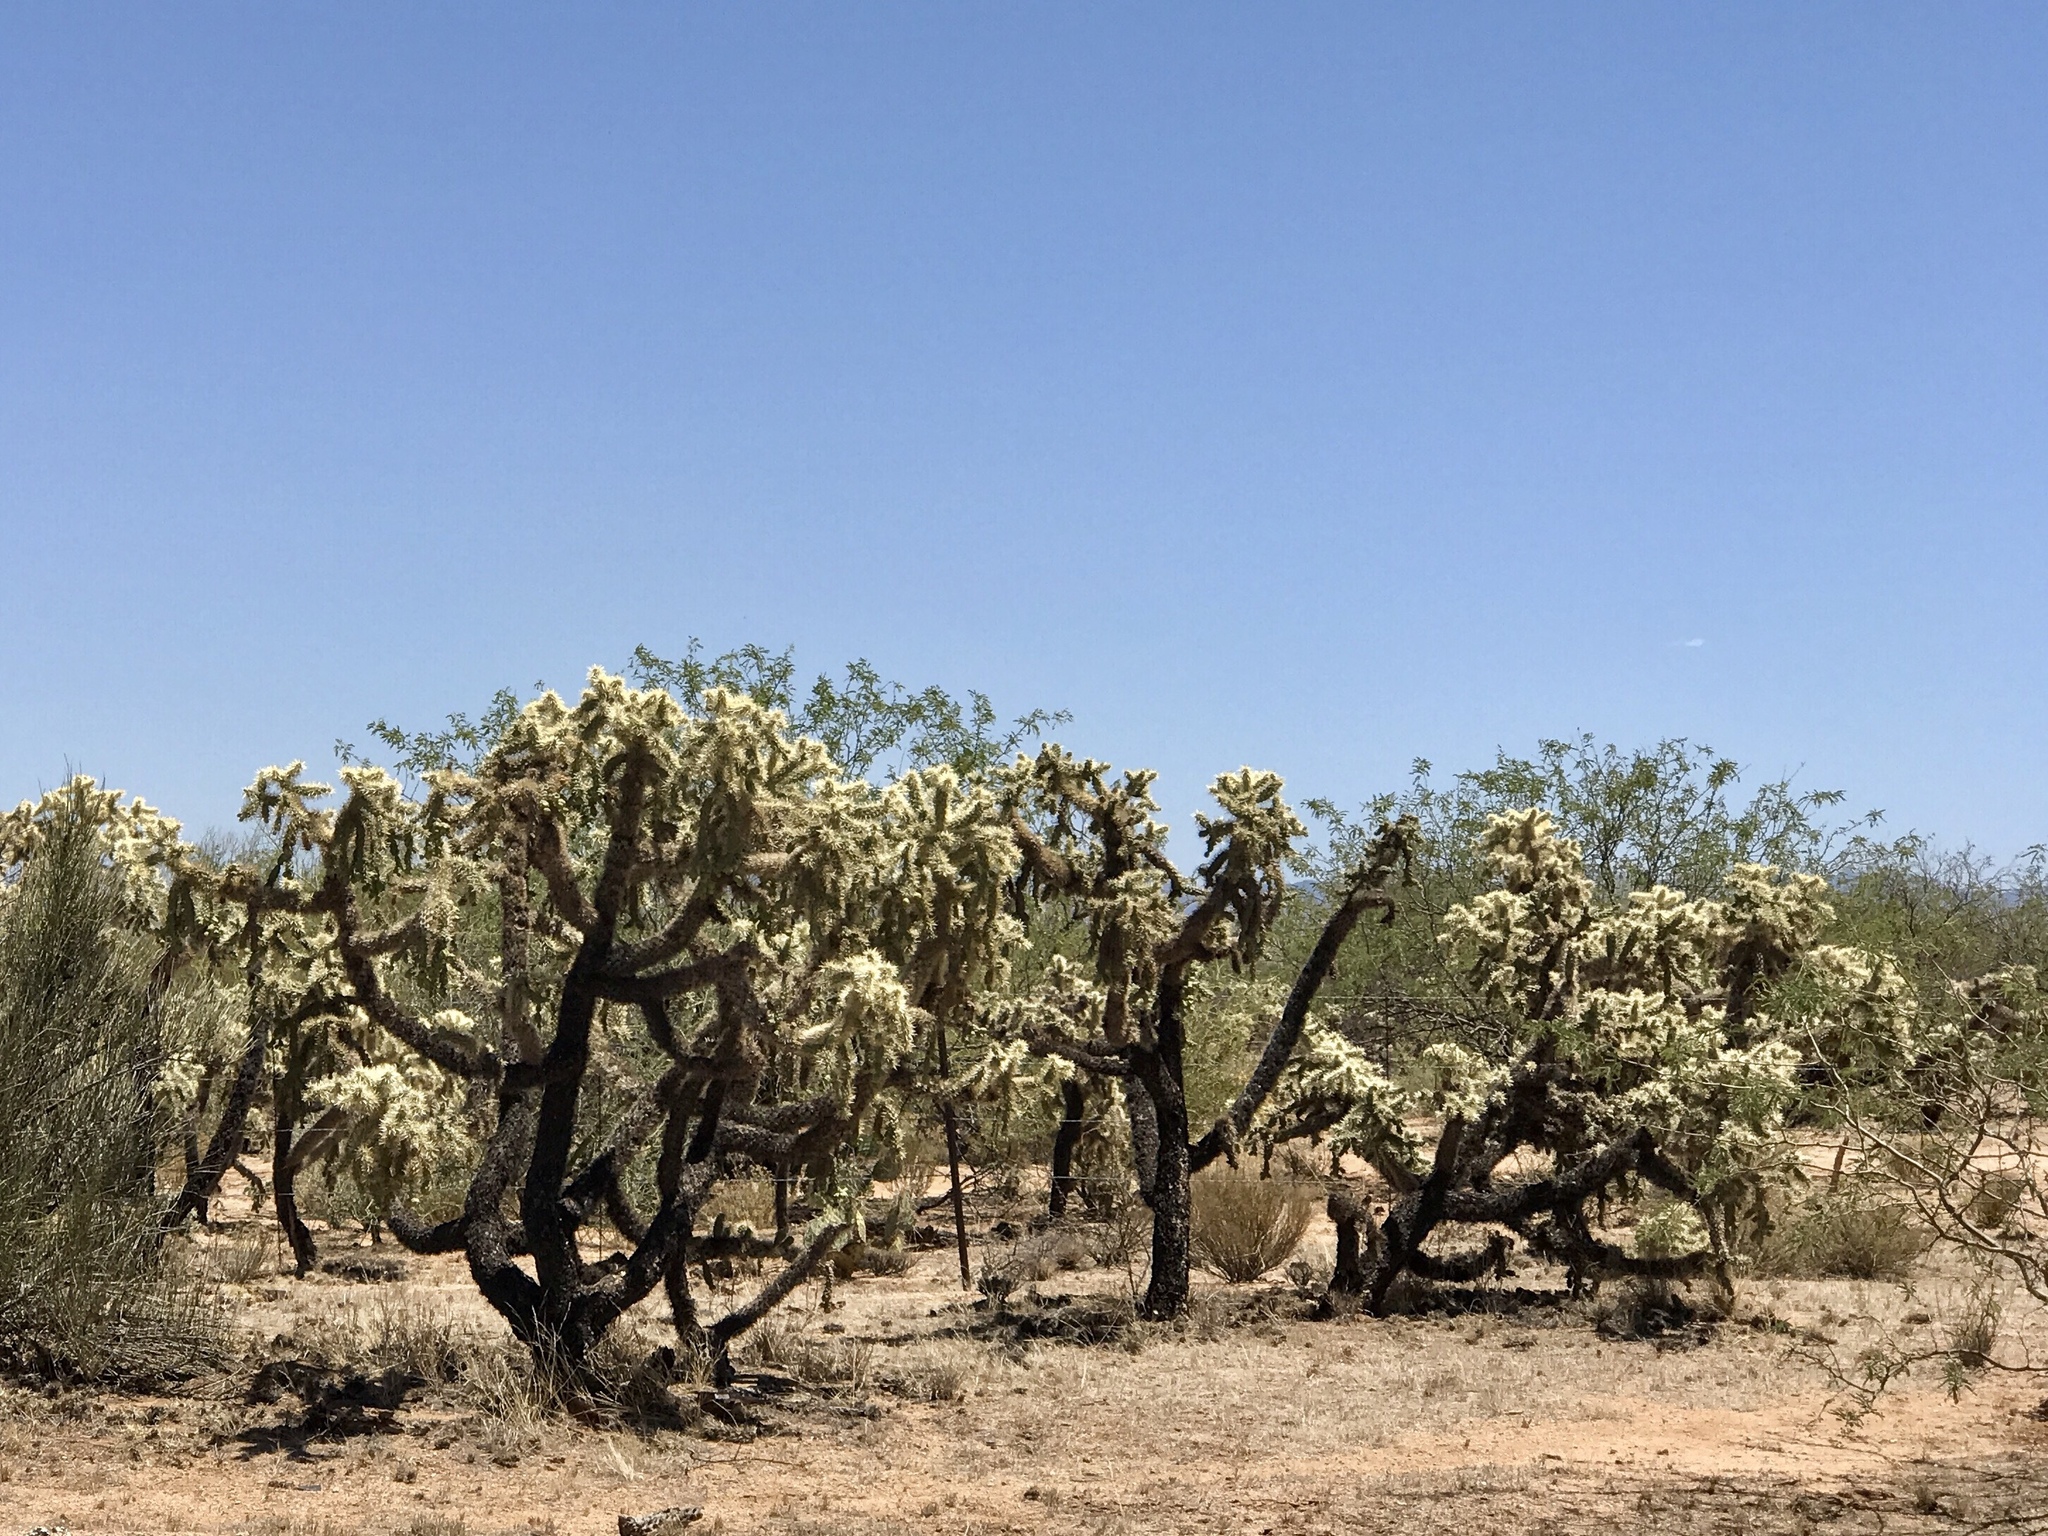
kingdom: Plantae
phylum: Tracheophyta
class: Magnoliopsida
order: Caryophyllales
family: Cactaceae
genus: Cylindropuntia
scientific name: Cylindropuntia fulgida
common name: Jumping cholla
